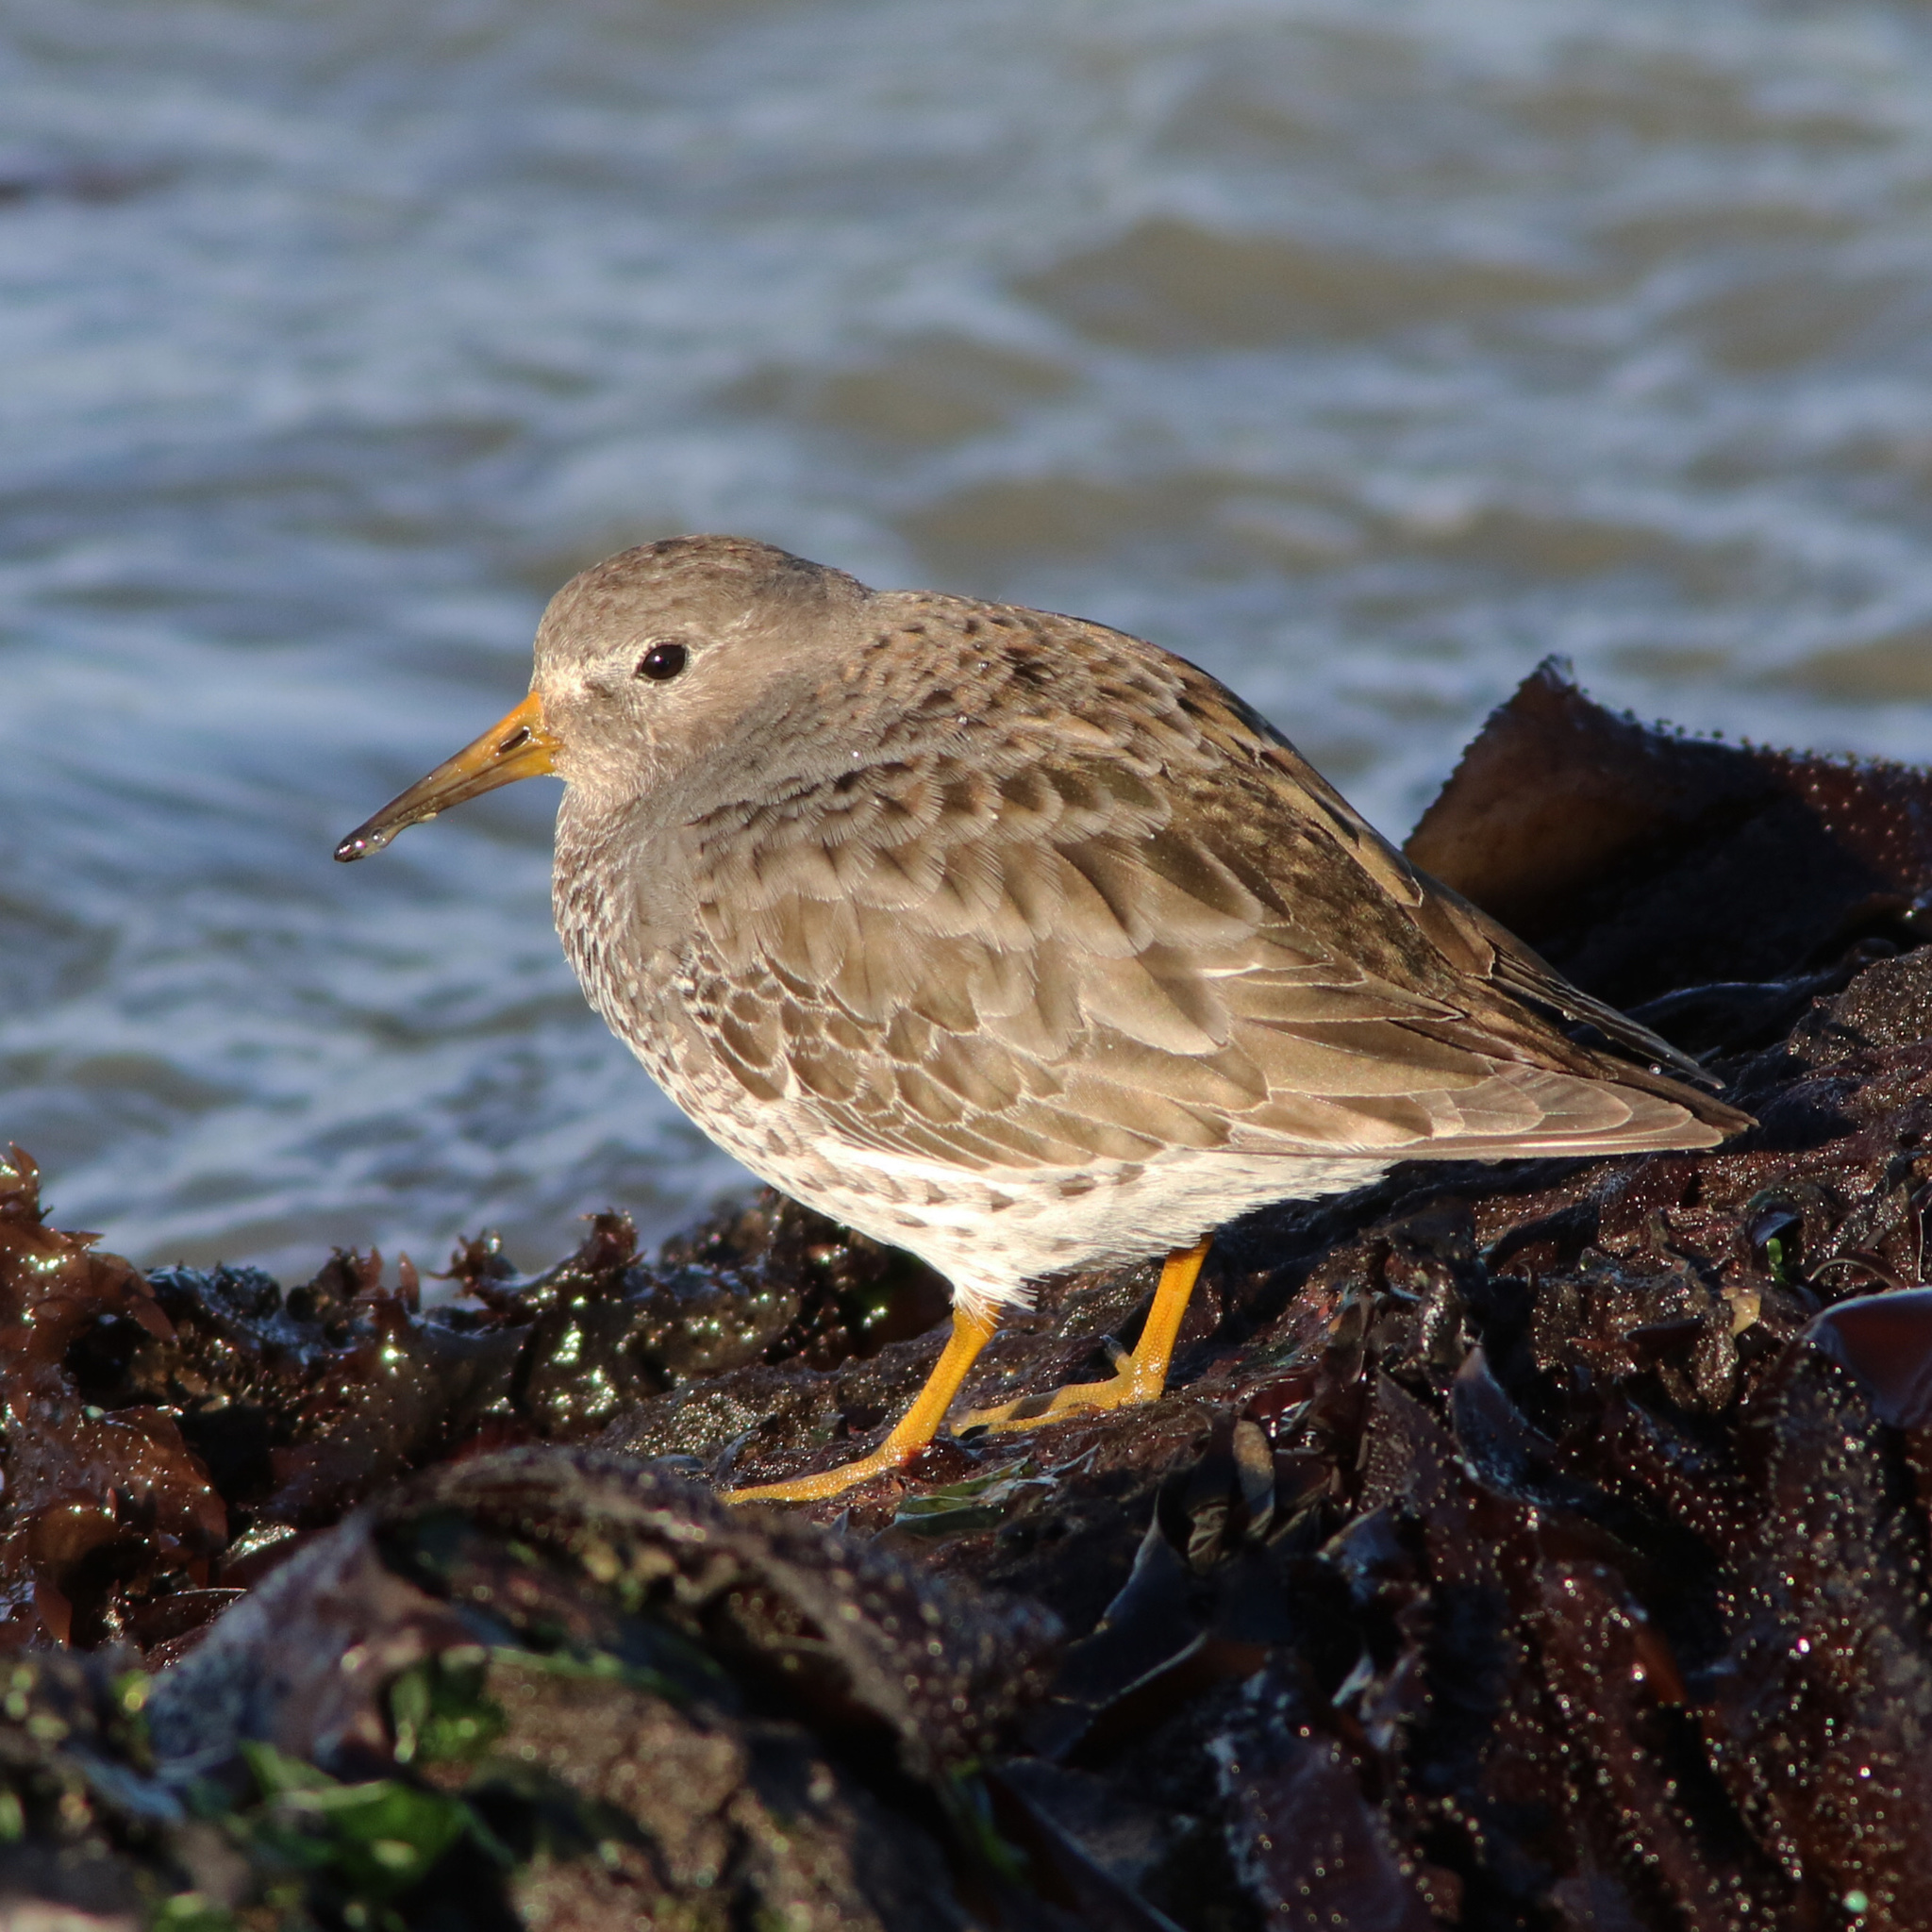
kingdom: Animalia
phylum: Chordata
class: Aves
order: Charadriiformes
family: Scolopacidae
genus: Calidris
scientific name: Calidris ptilocnemis
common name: Rock sandpiper
